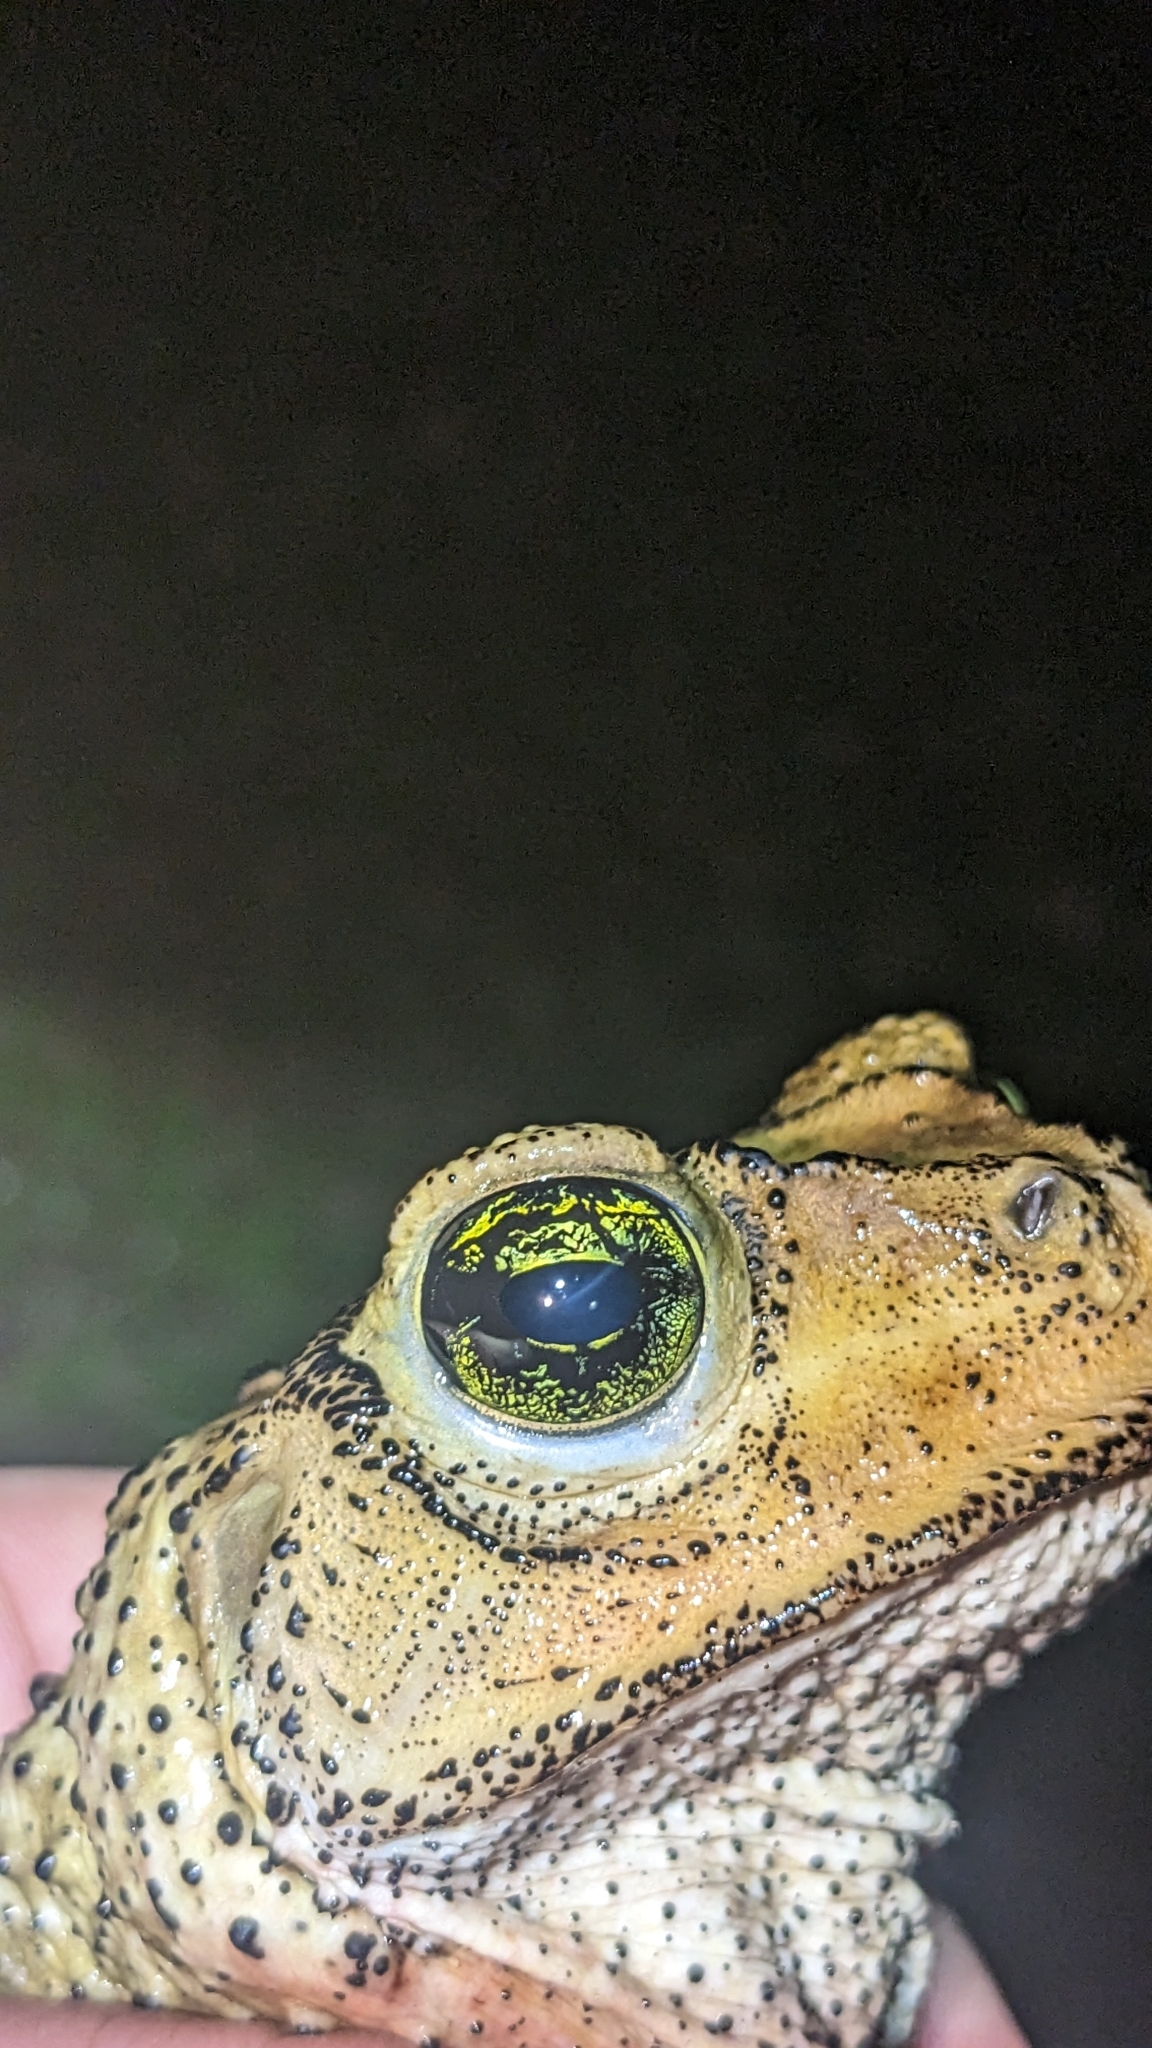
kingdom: Animalia
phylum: Chordata
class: Amphibia
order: Anura
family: Bufonidae
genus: Peltophryne
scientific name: Peltophryne taladai
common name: Cuban spotted toad
